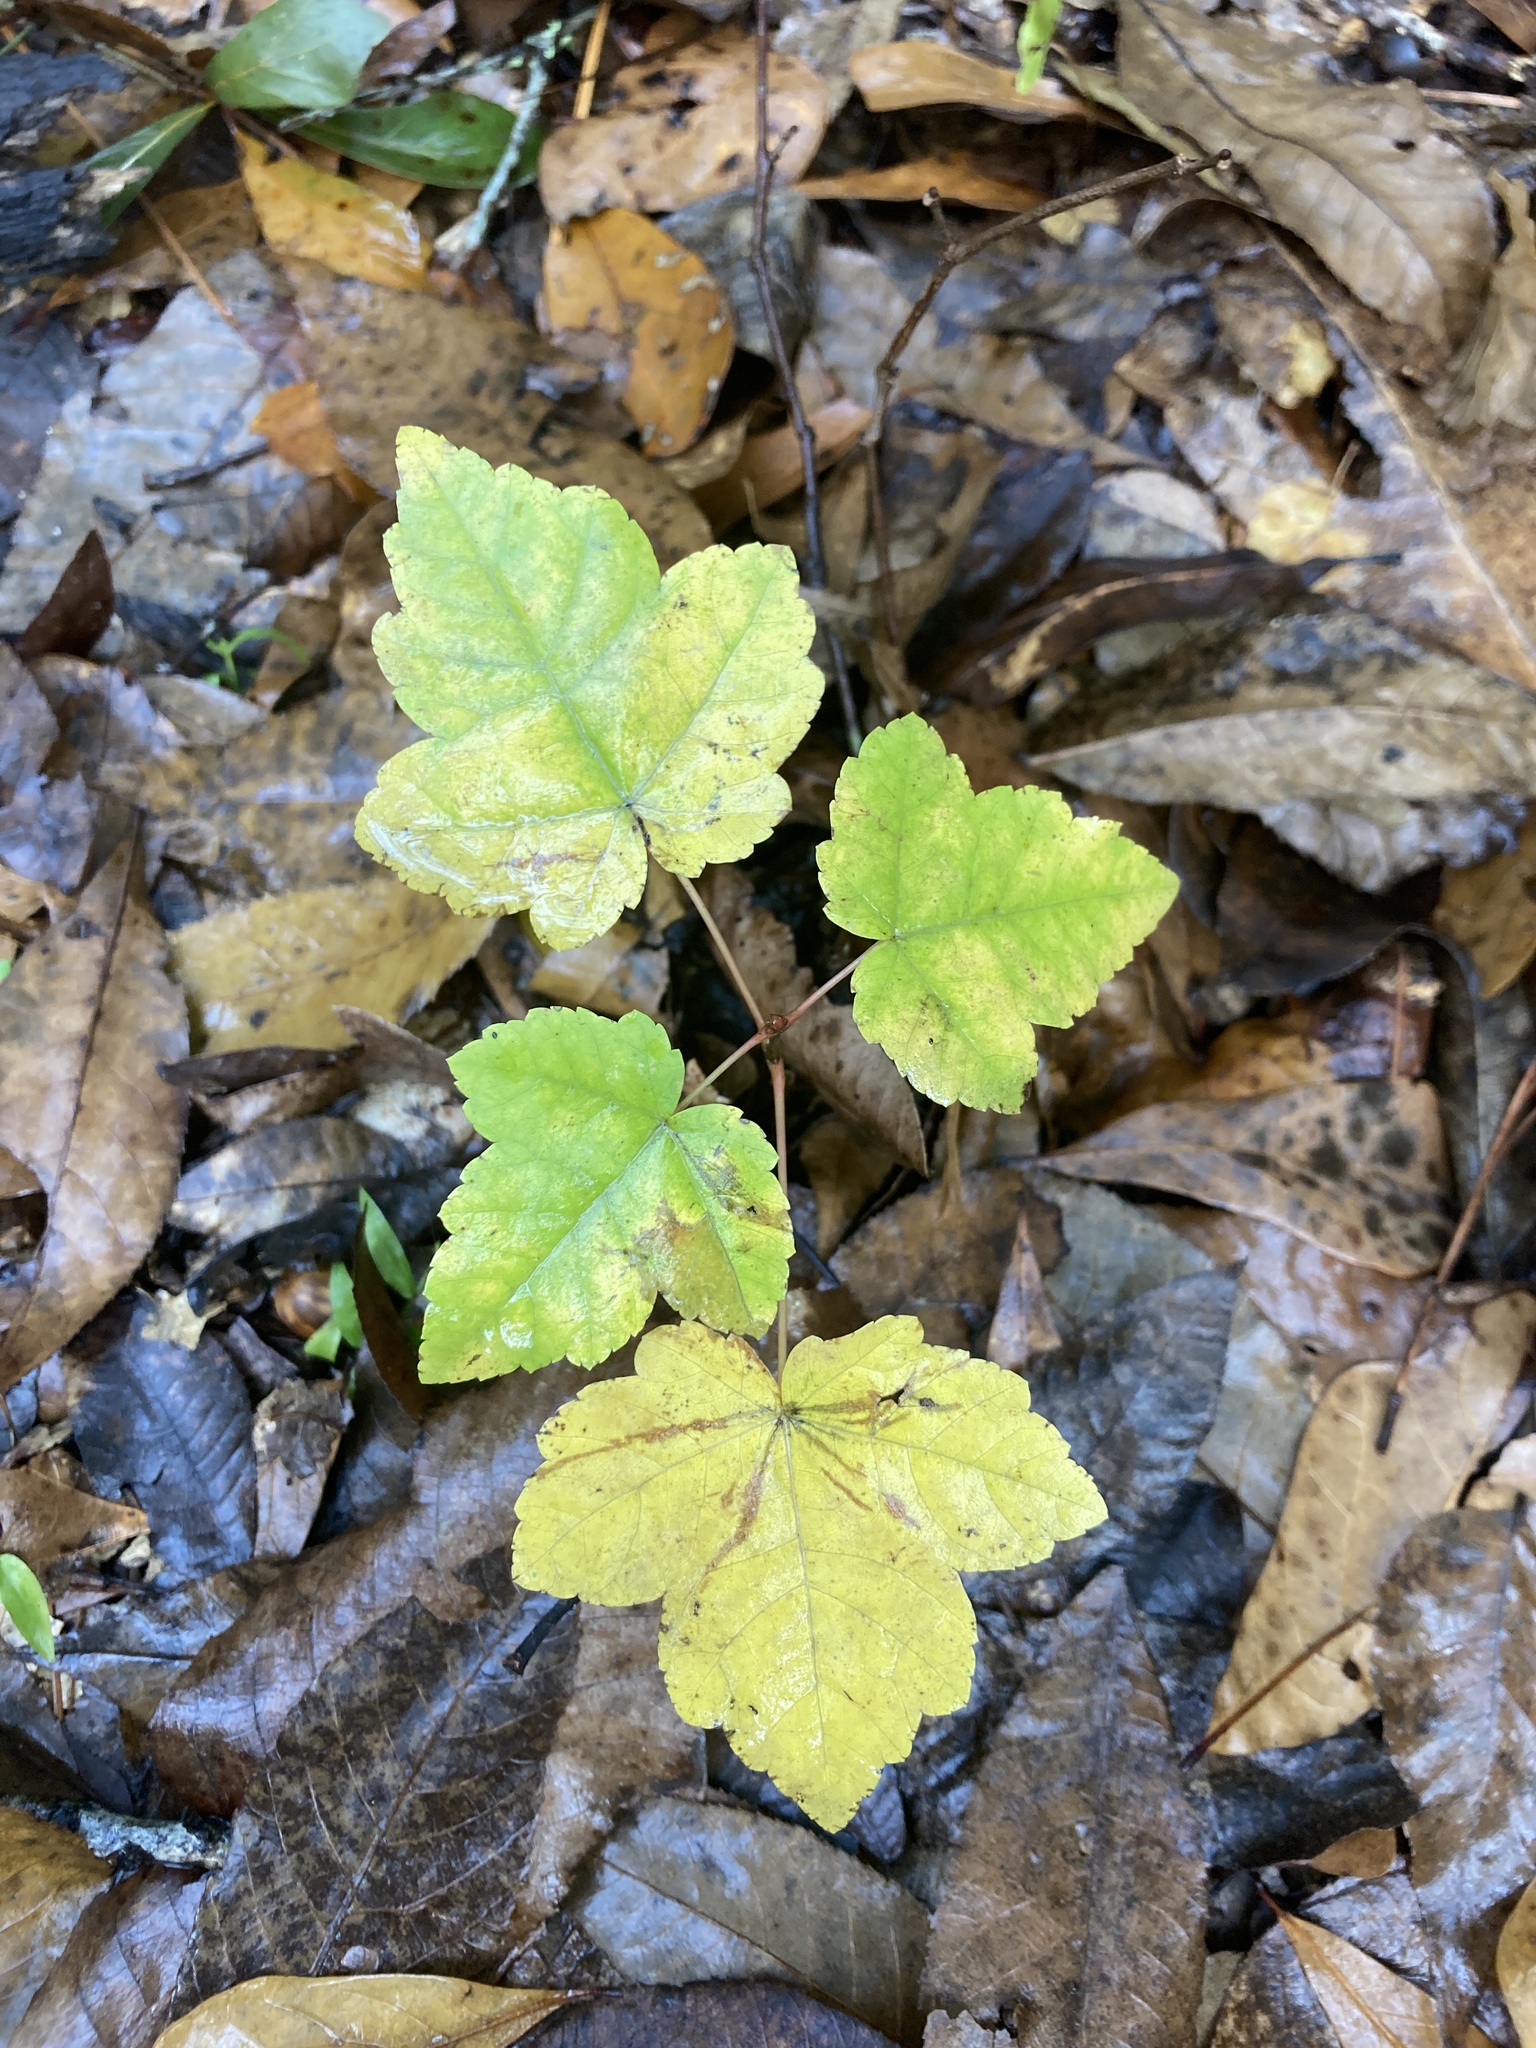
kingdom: Plantae
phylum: Tracheophyta
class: Magnoliopsida
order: Sapindales
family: Sapindaceae
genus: Acer
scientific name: Acer rubrum
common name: Red maple
